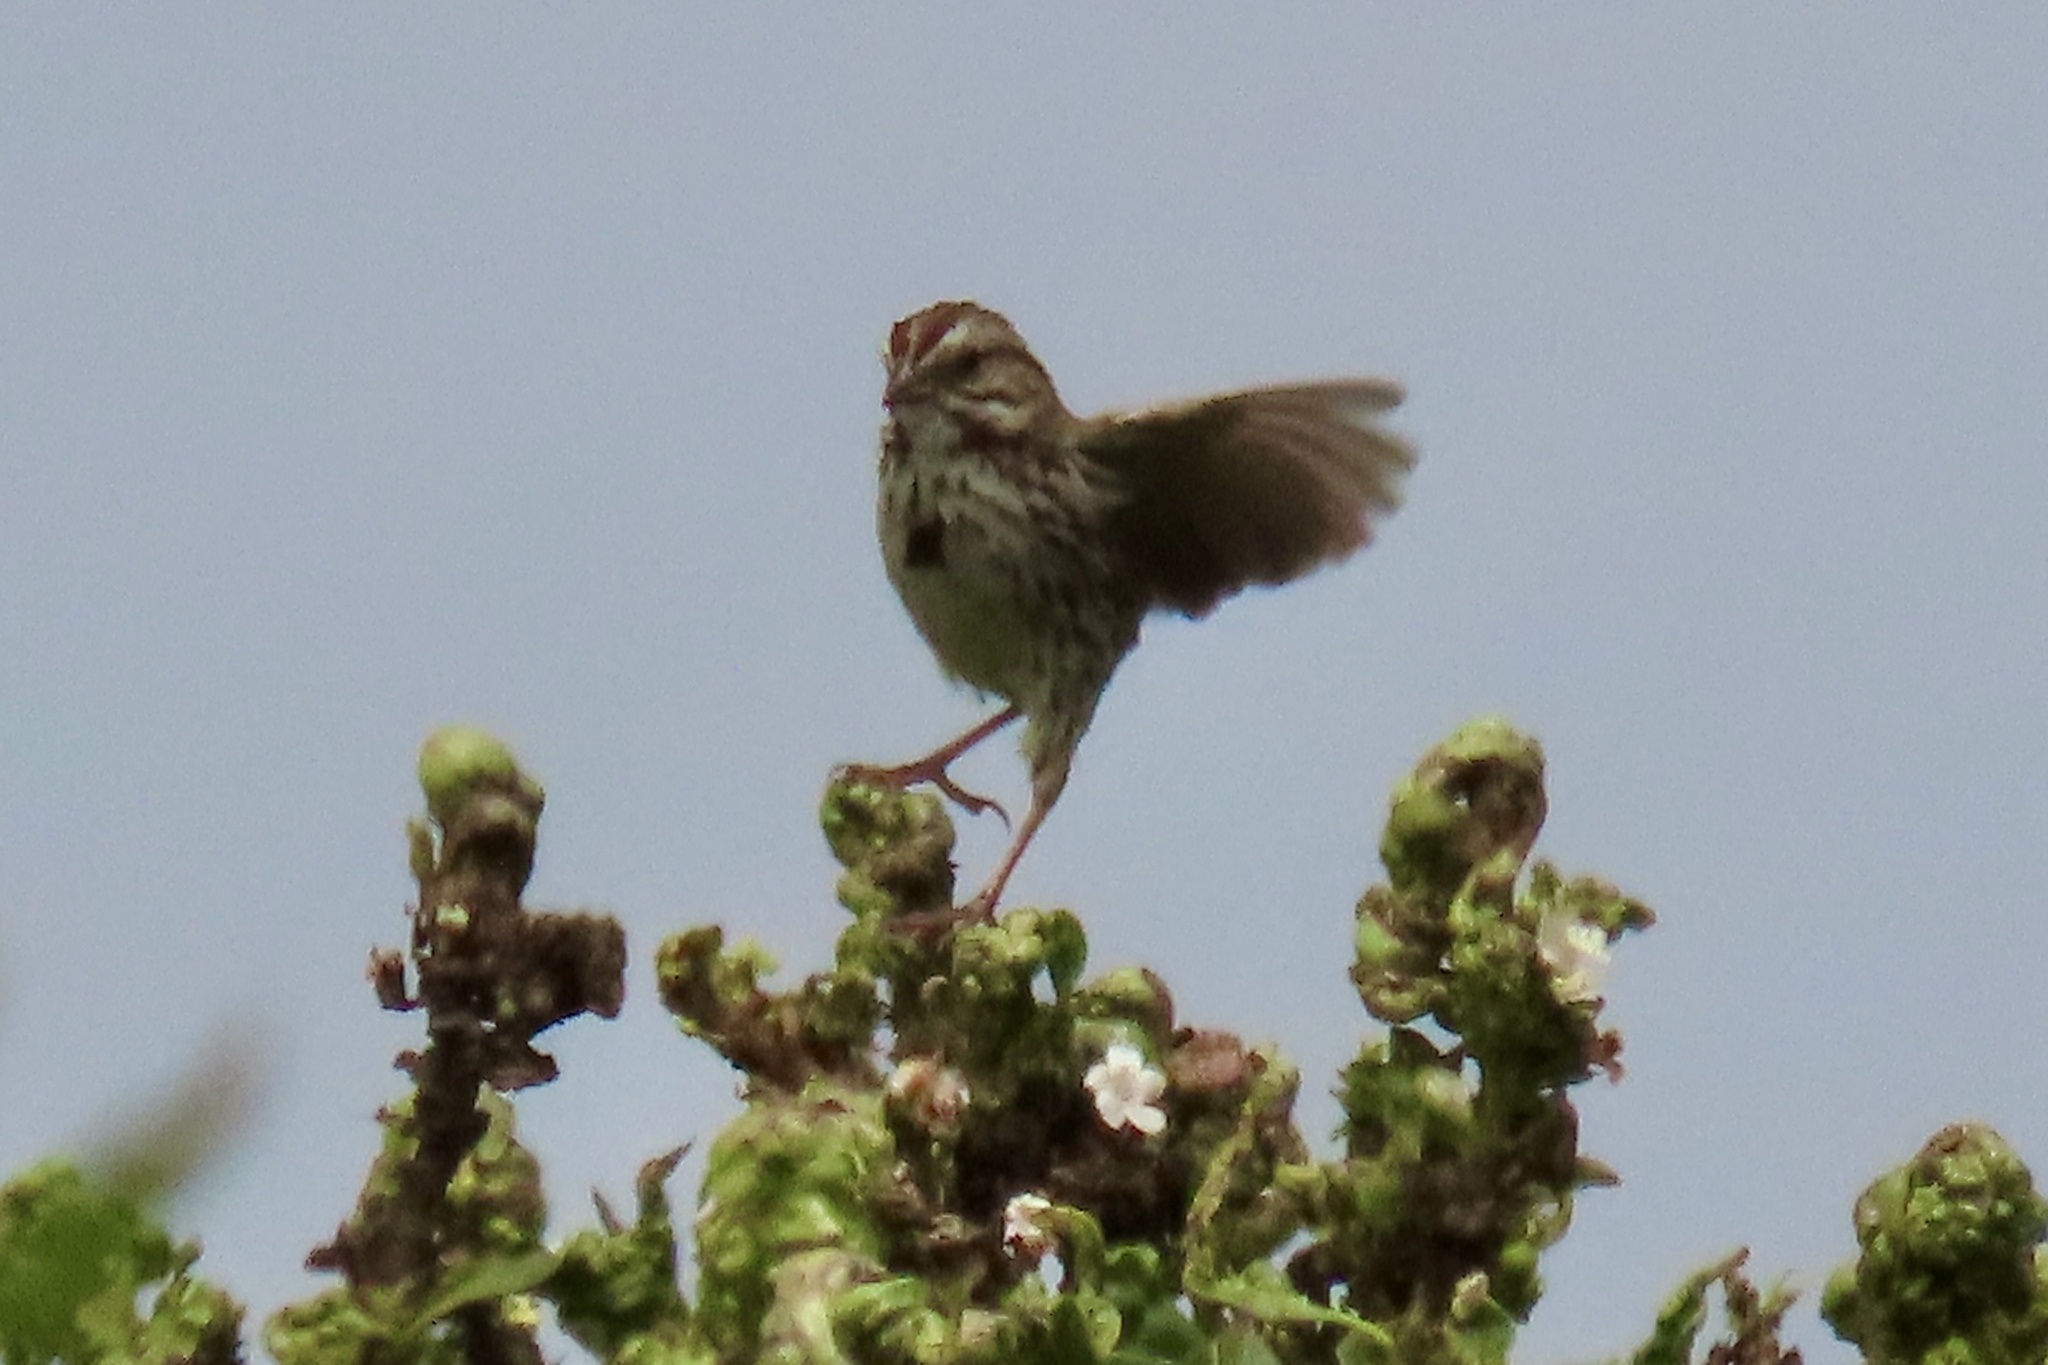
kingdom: Animalia
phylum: Chordata
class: Aves
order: Passeriformes
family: Passerellidae
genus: Melospiza
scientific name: Melospiza melodia
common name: Song sparrow
